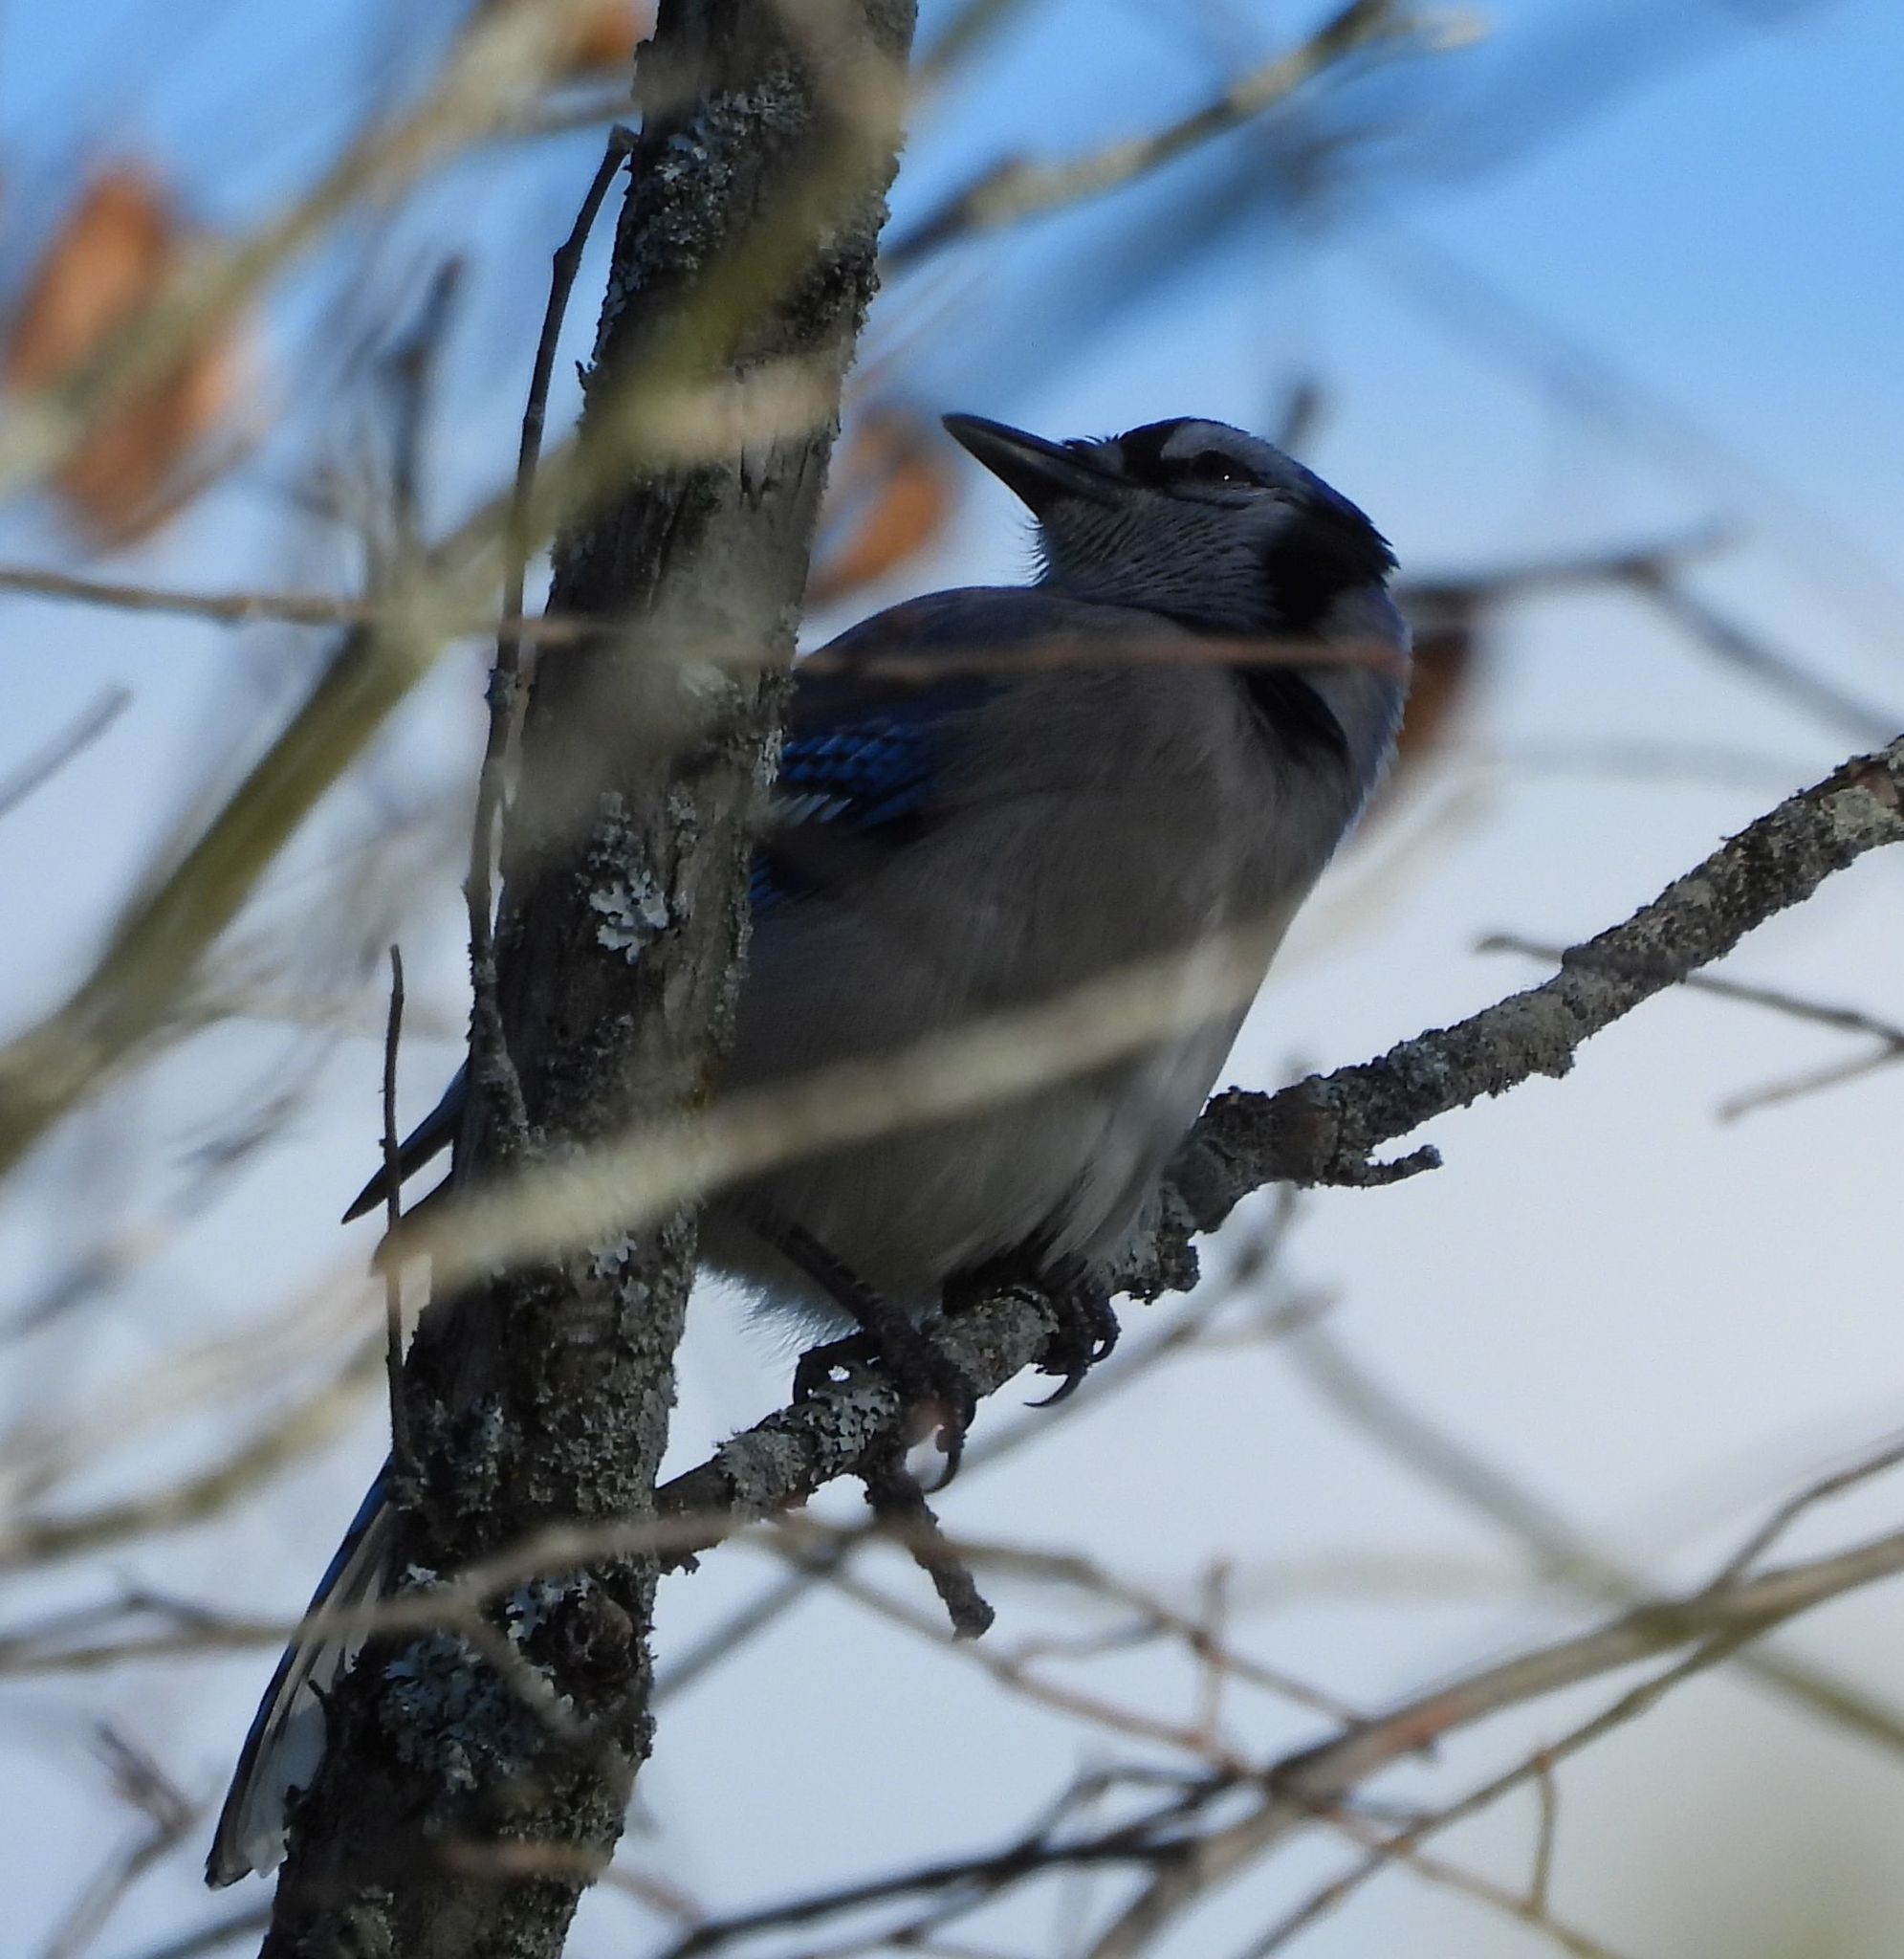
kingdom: Animalia
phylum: Chordata
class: Aves
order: Passeriformes
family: Corvidae
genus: Cyanocitta
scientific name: Cyanocitta cristata
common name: Blue jay
